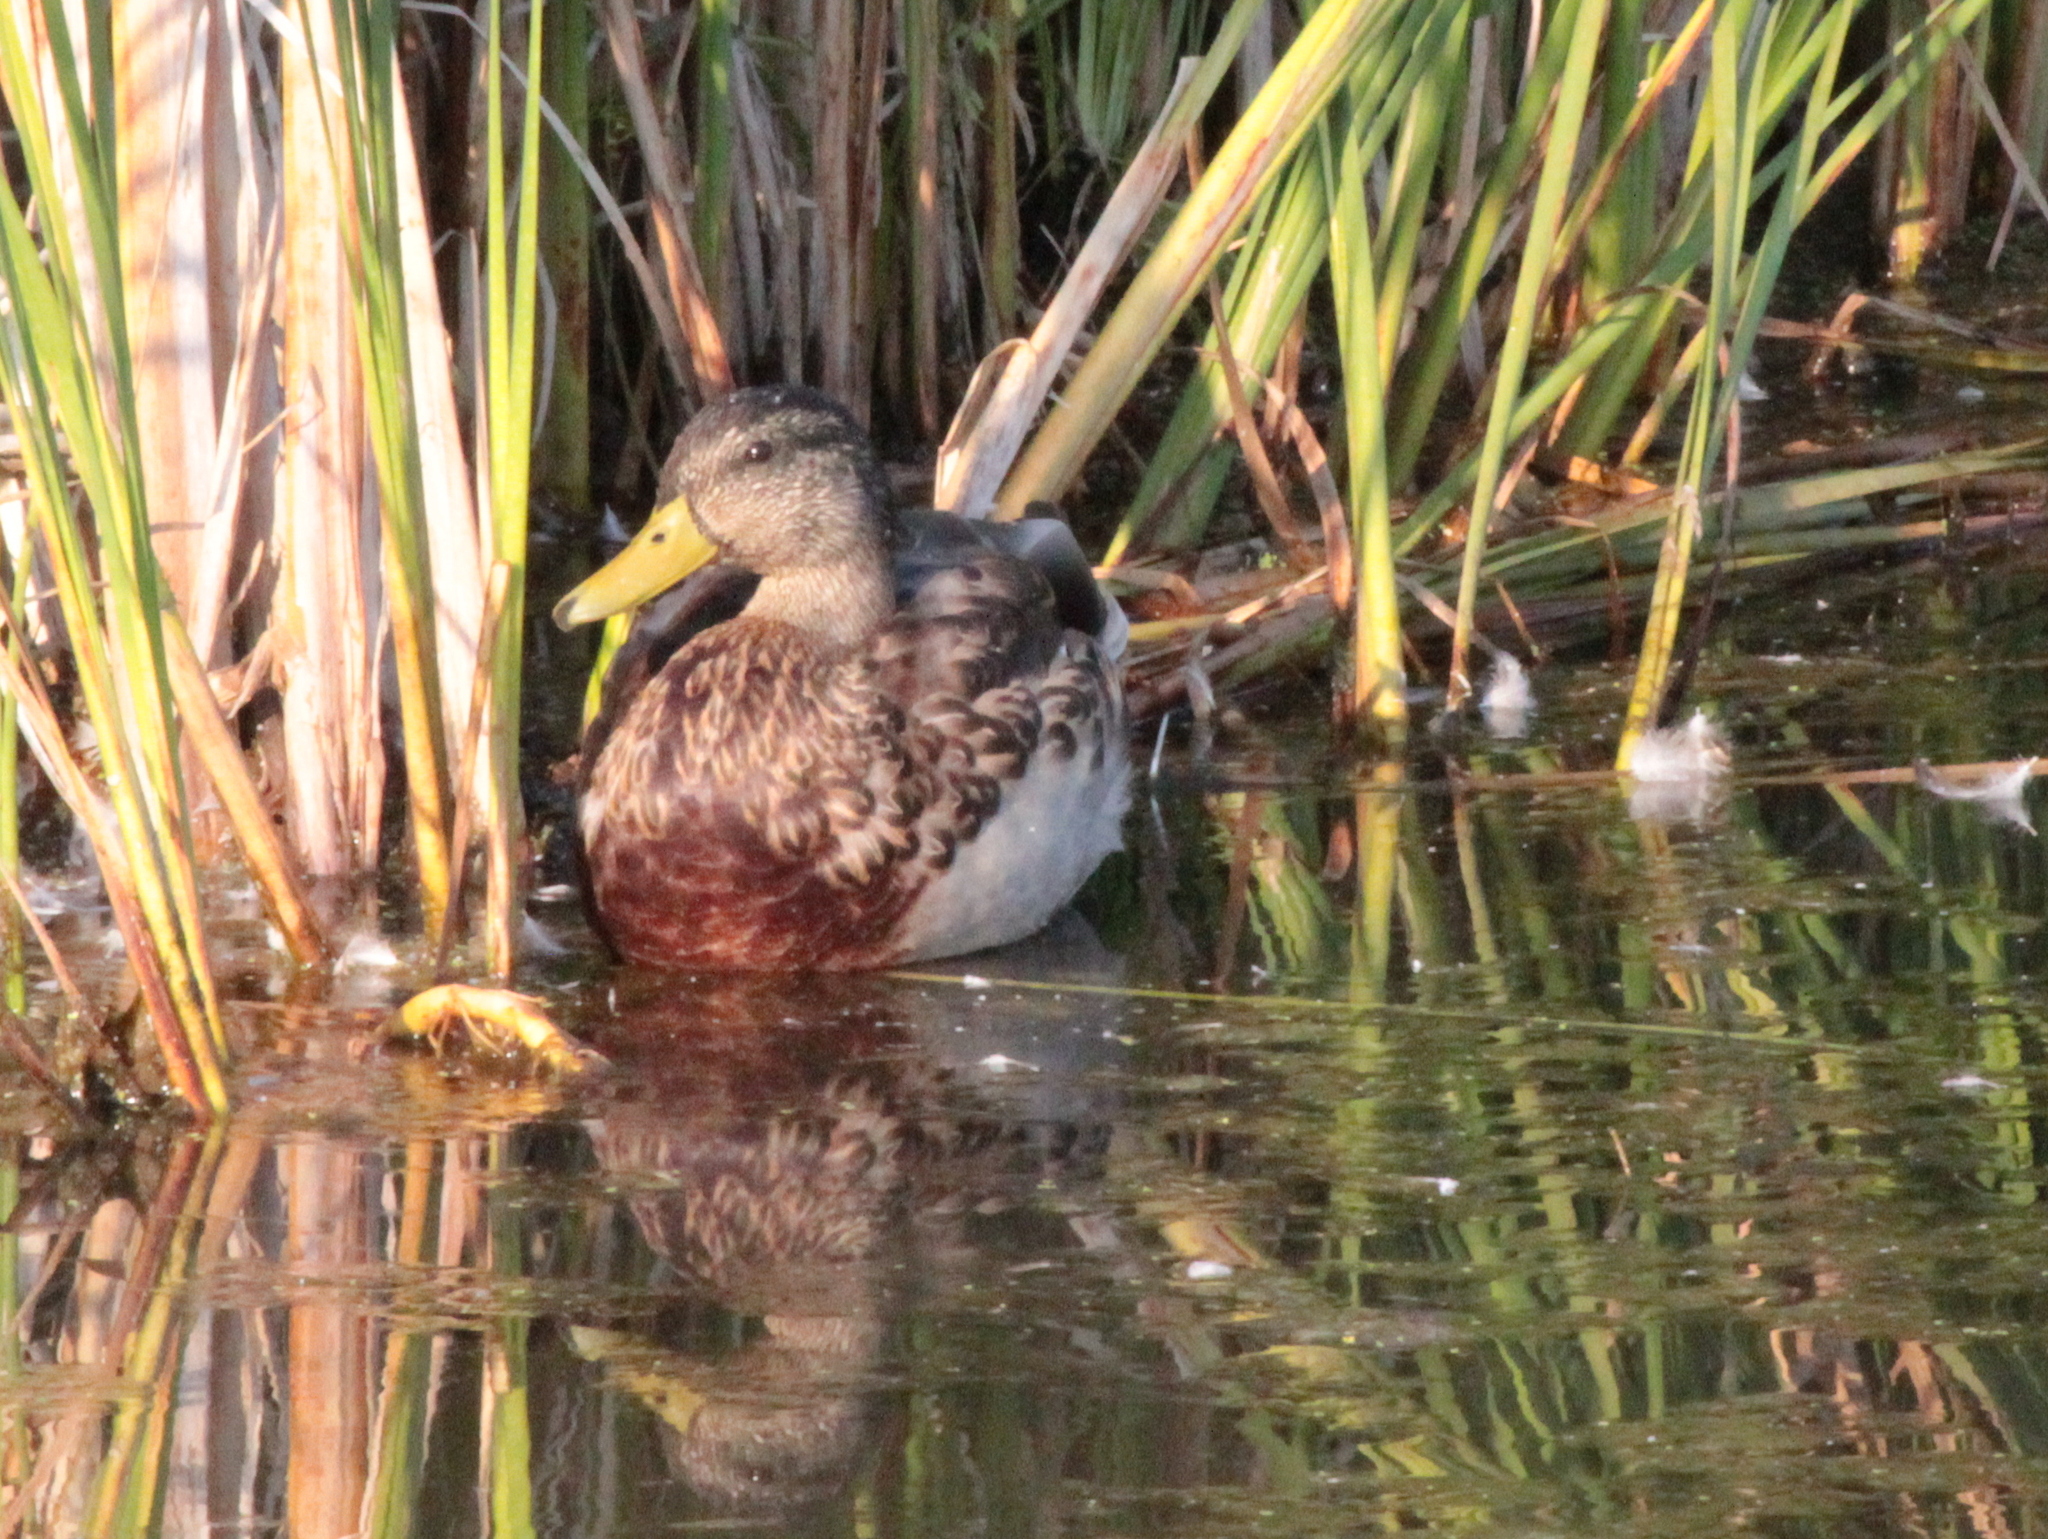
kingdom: Animalia
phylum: Chordata
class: Aves
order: Anseriformes
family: Anatidae
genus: Anas
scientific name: Anas platyrhynchos
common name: Mallard
